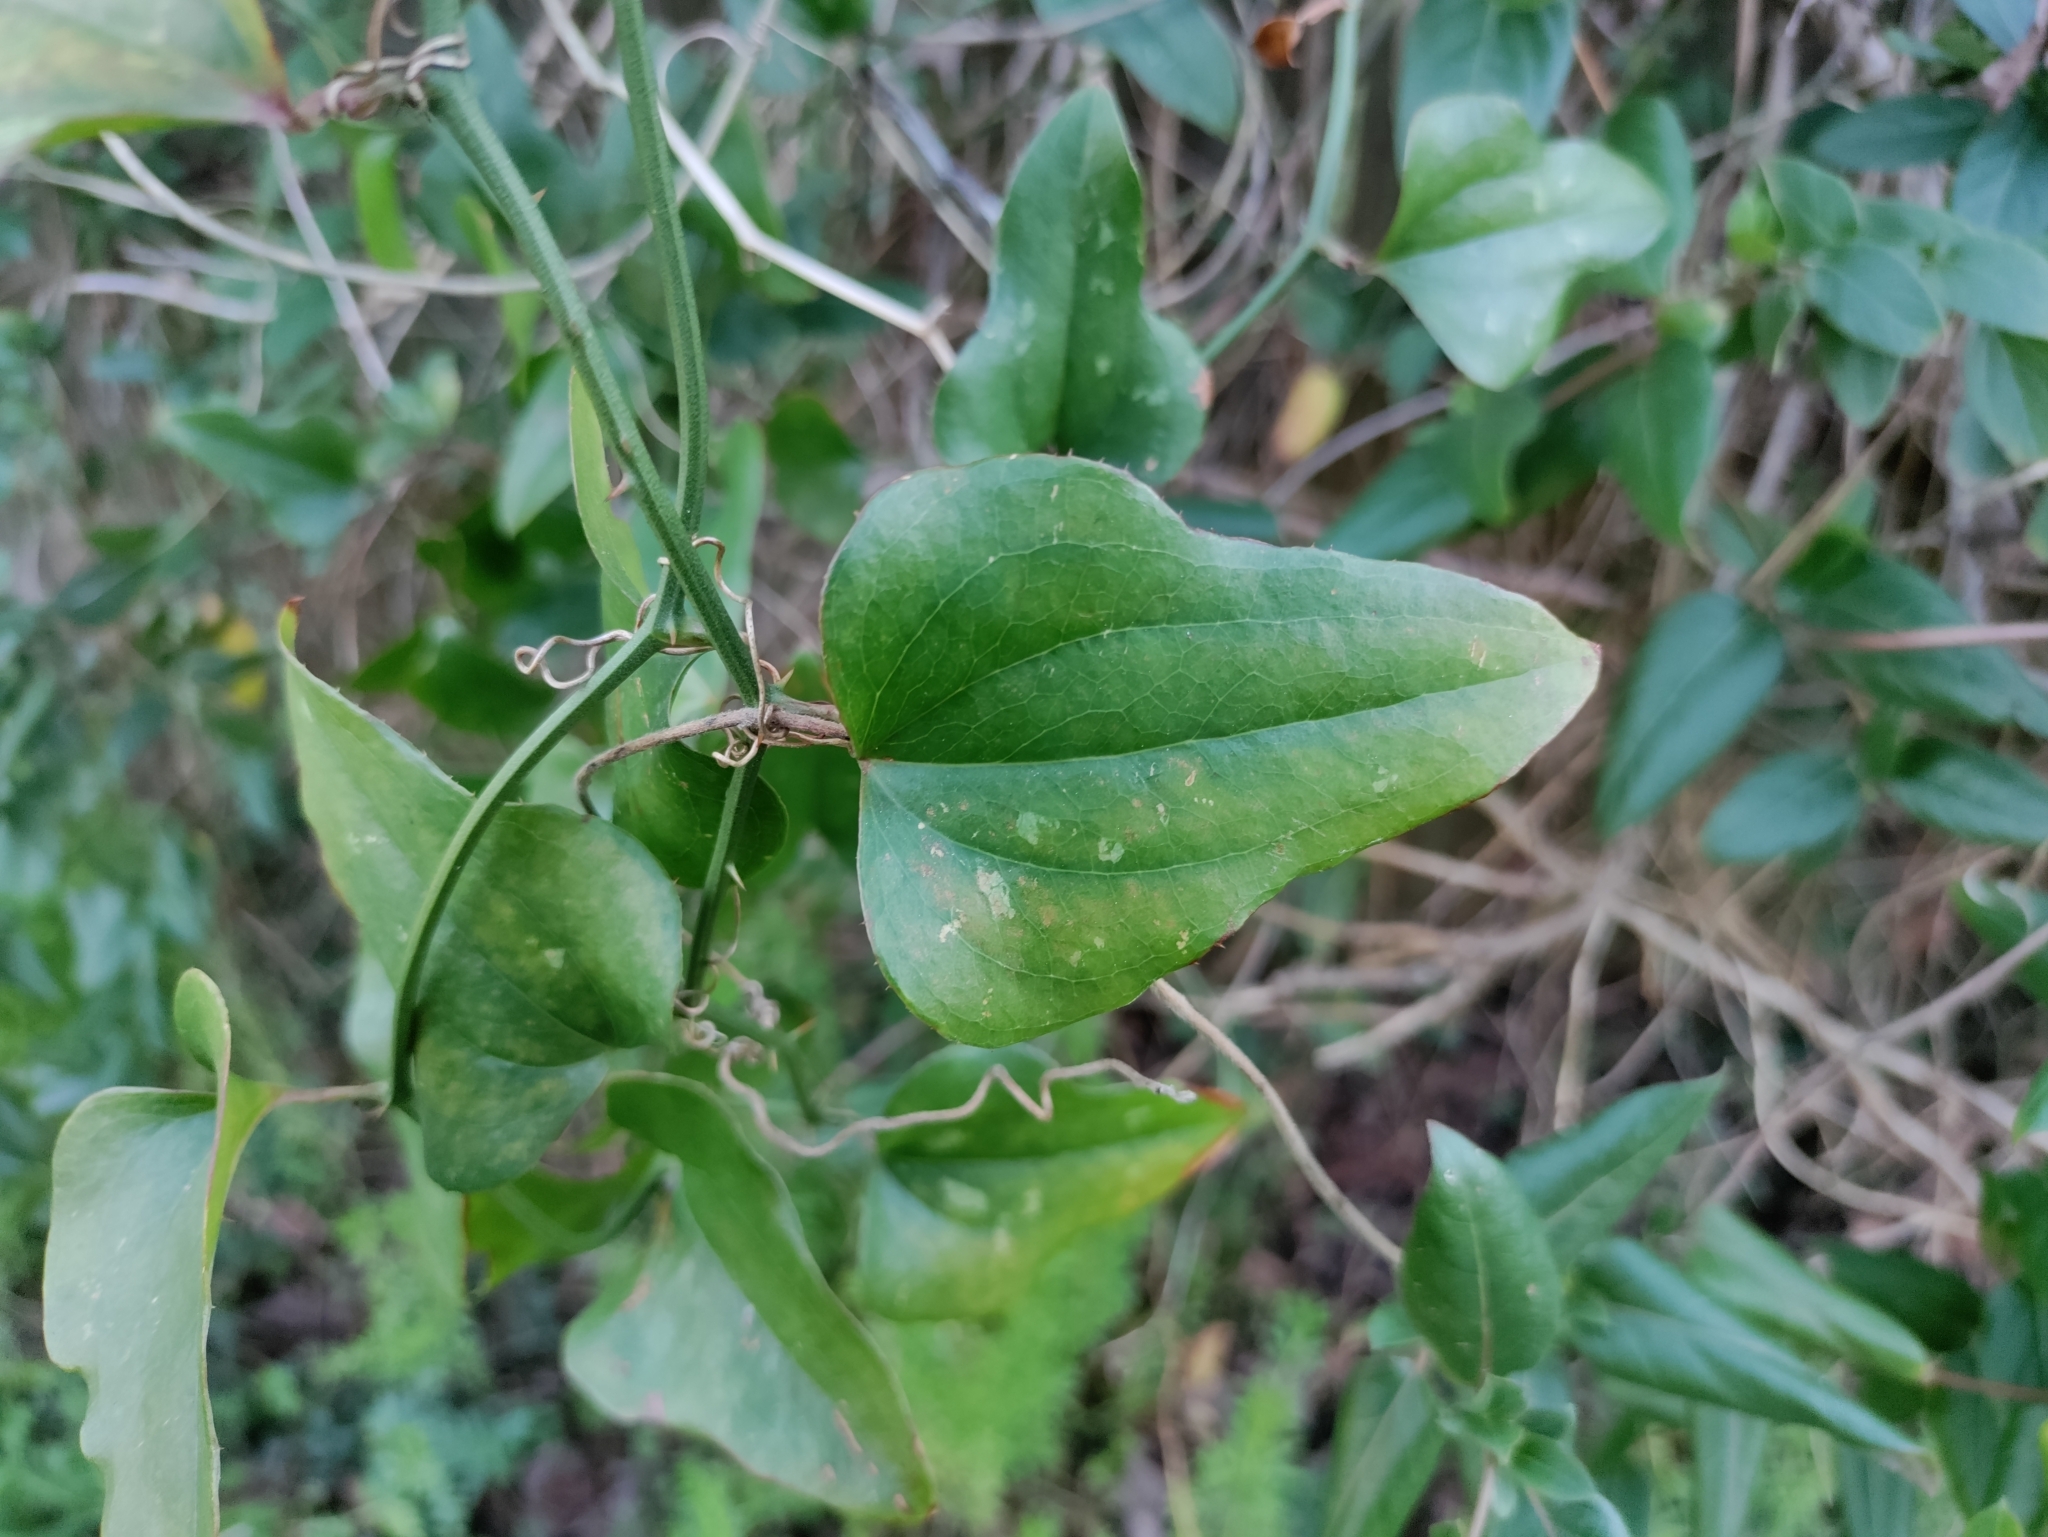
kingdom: Plantae
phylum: Tracheophyta
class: Liliopsida
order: Liliales
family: Smilacaceae
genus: Smilax
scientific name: Smilax bona-nox
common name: Catbrier
